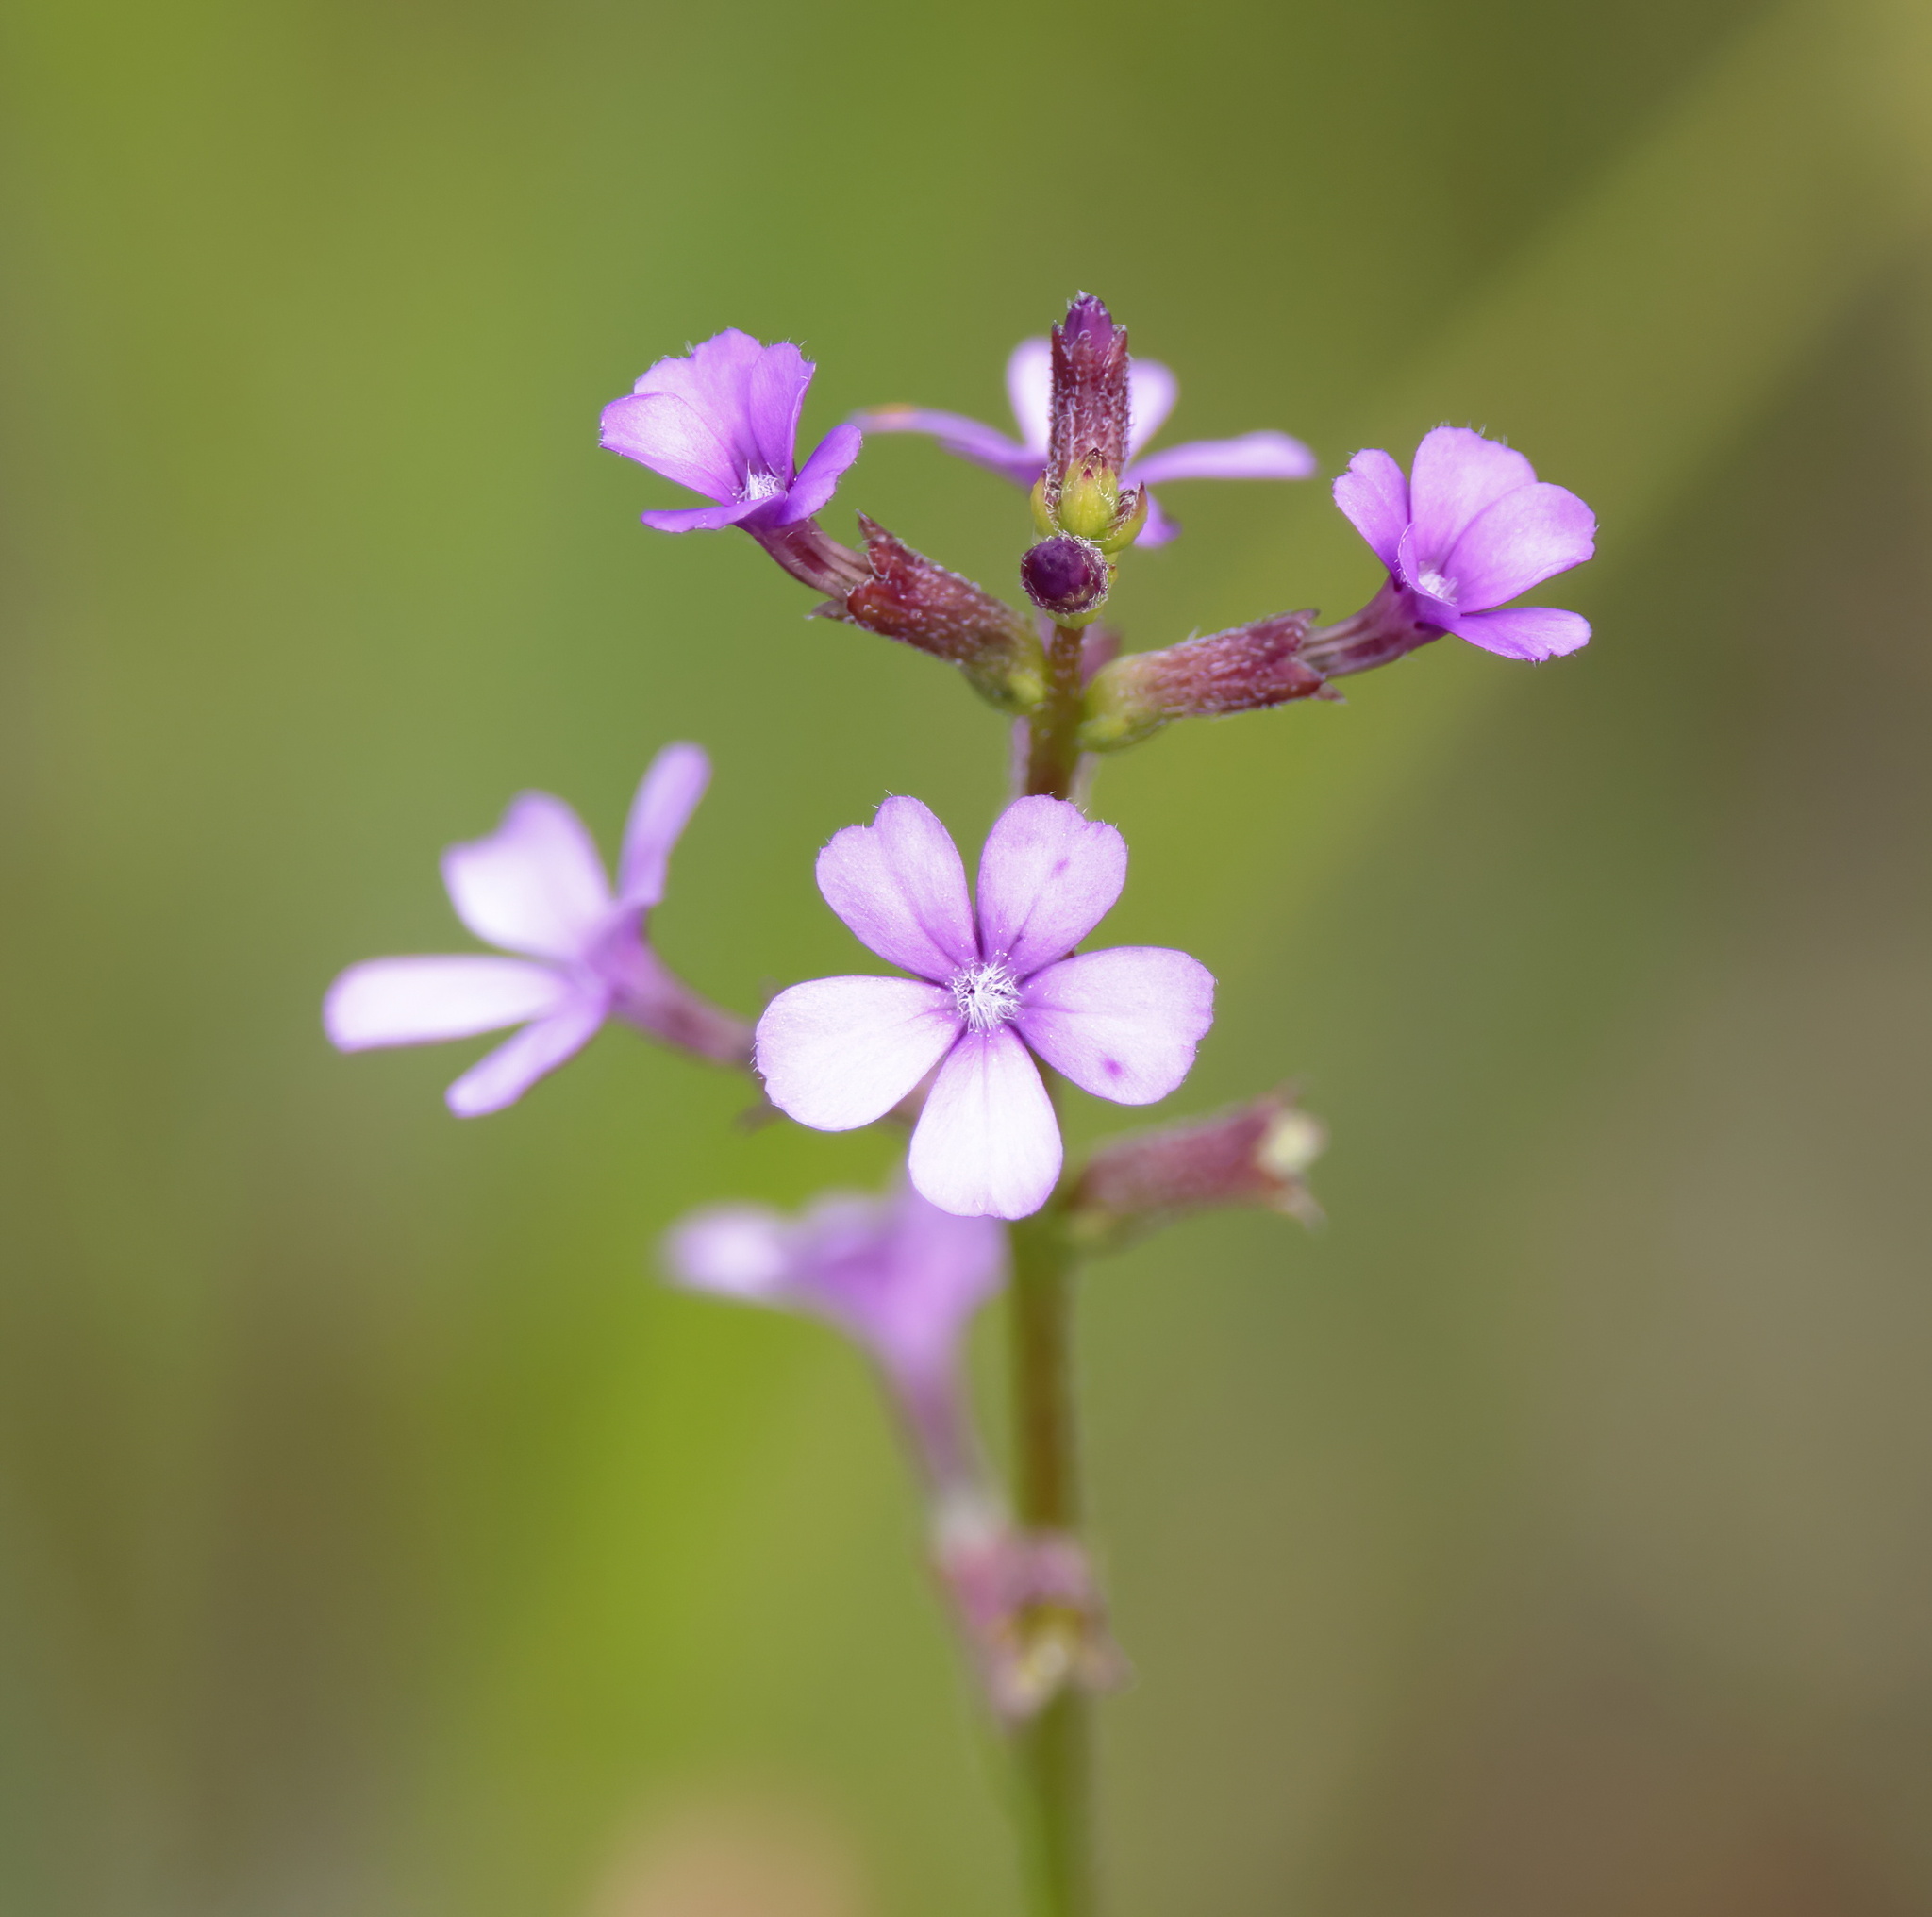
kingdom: Plantae
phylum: Tracheophyta
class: Magnoliopsida
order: Lamiales
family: Orobanchaceae
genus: Buchnera
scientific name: Buchnera floridana
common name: Florida bluehearts
